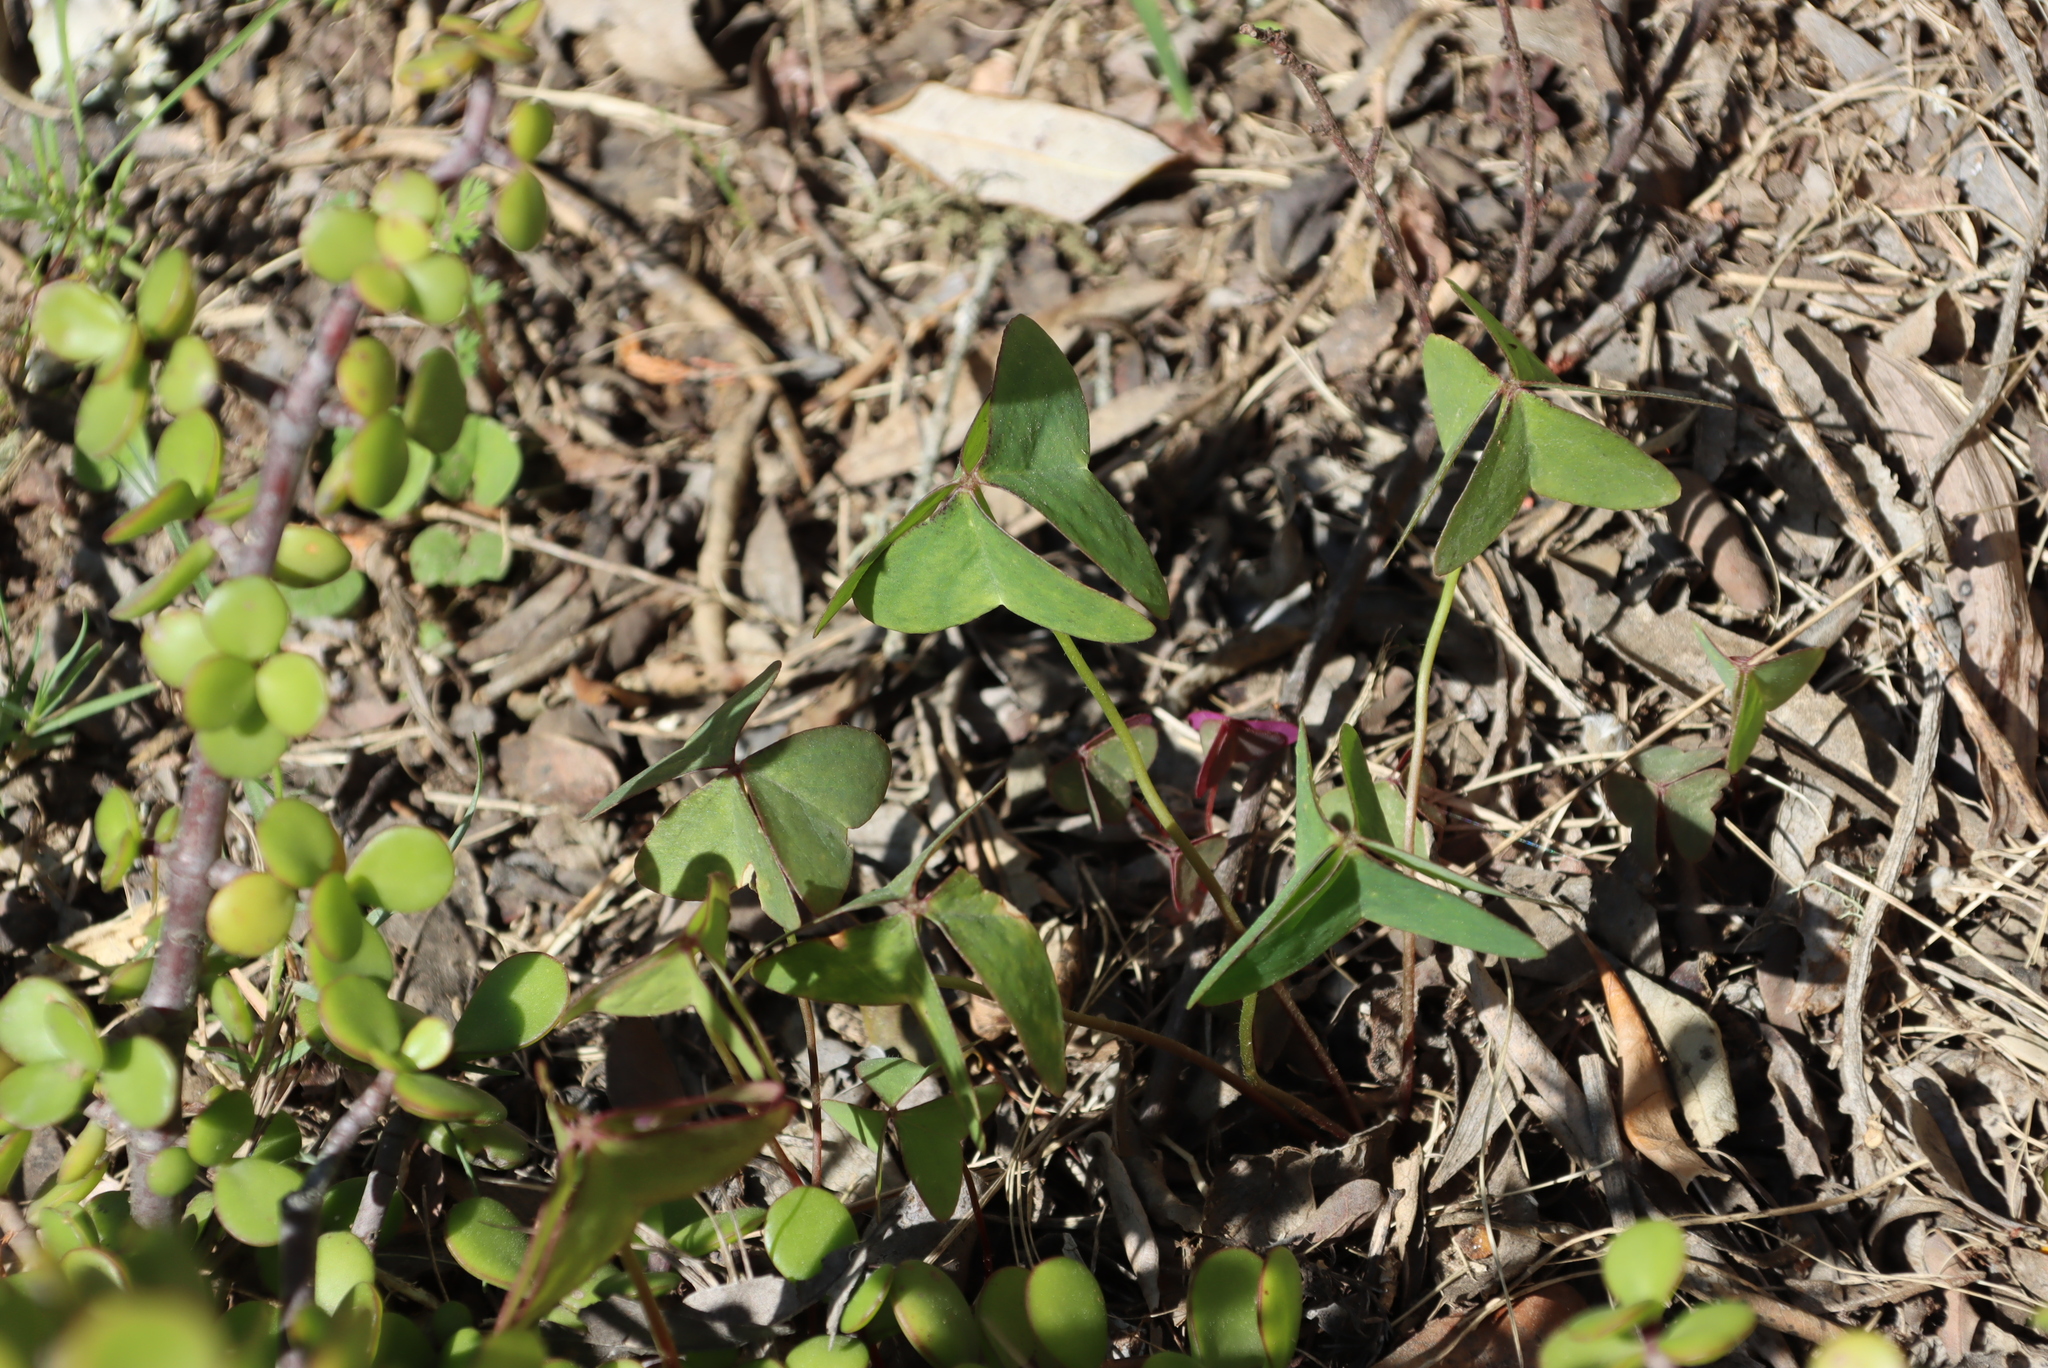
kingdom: Plantae
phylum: Tracheophyta
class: Magnoliopsida
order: Oxalidales
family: Oxalidaceae
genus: Oxalis
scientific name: Oxalis latifolia
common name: Garden pink-sorrel
